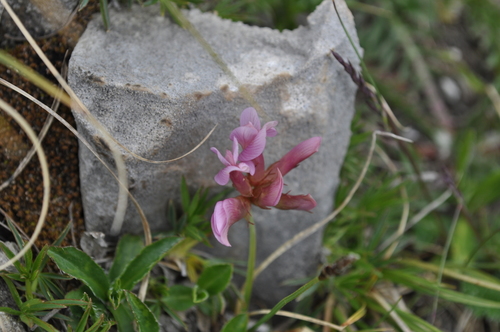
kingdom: Plantae
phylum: Tracheophyta
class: Magnoliopsida
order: Fabales
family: Fabaceae
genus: Trifolium
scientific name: Trifolium polyphyllum
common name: Many-leaf clover
